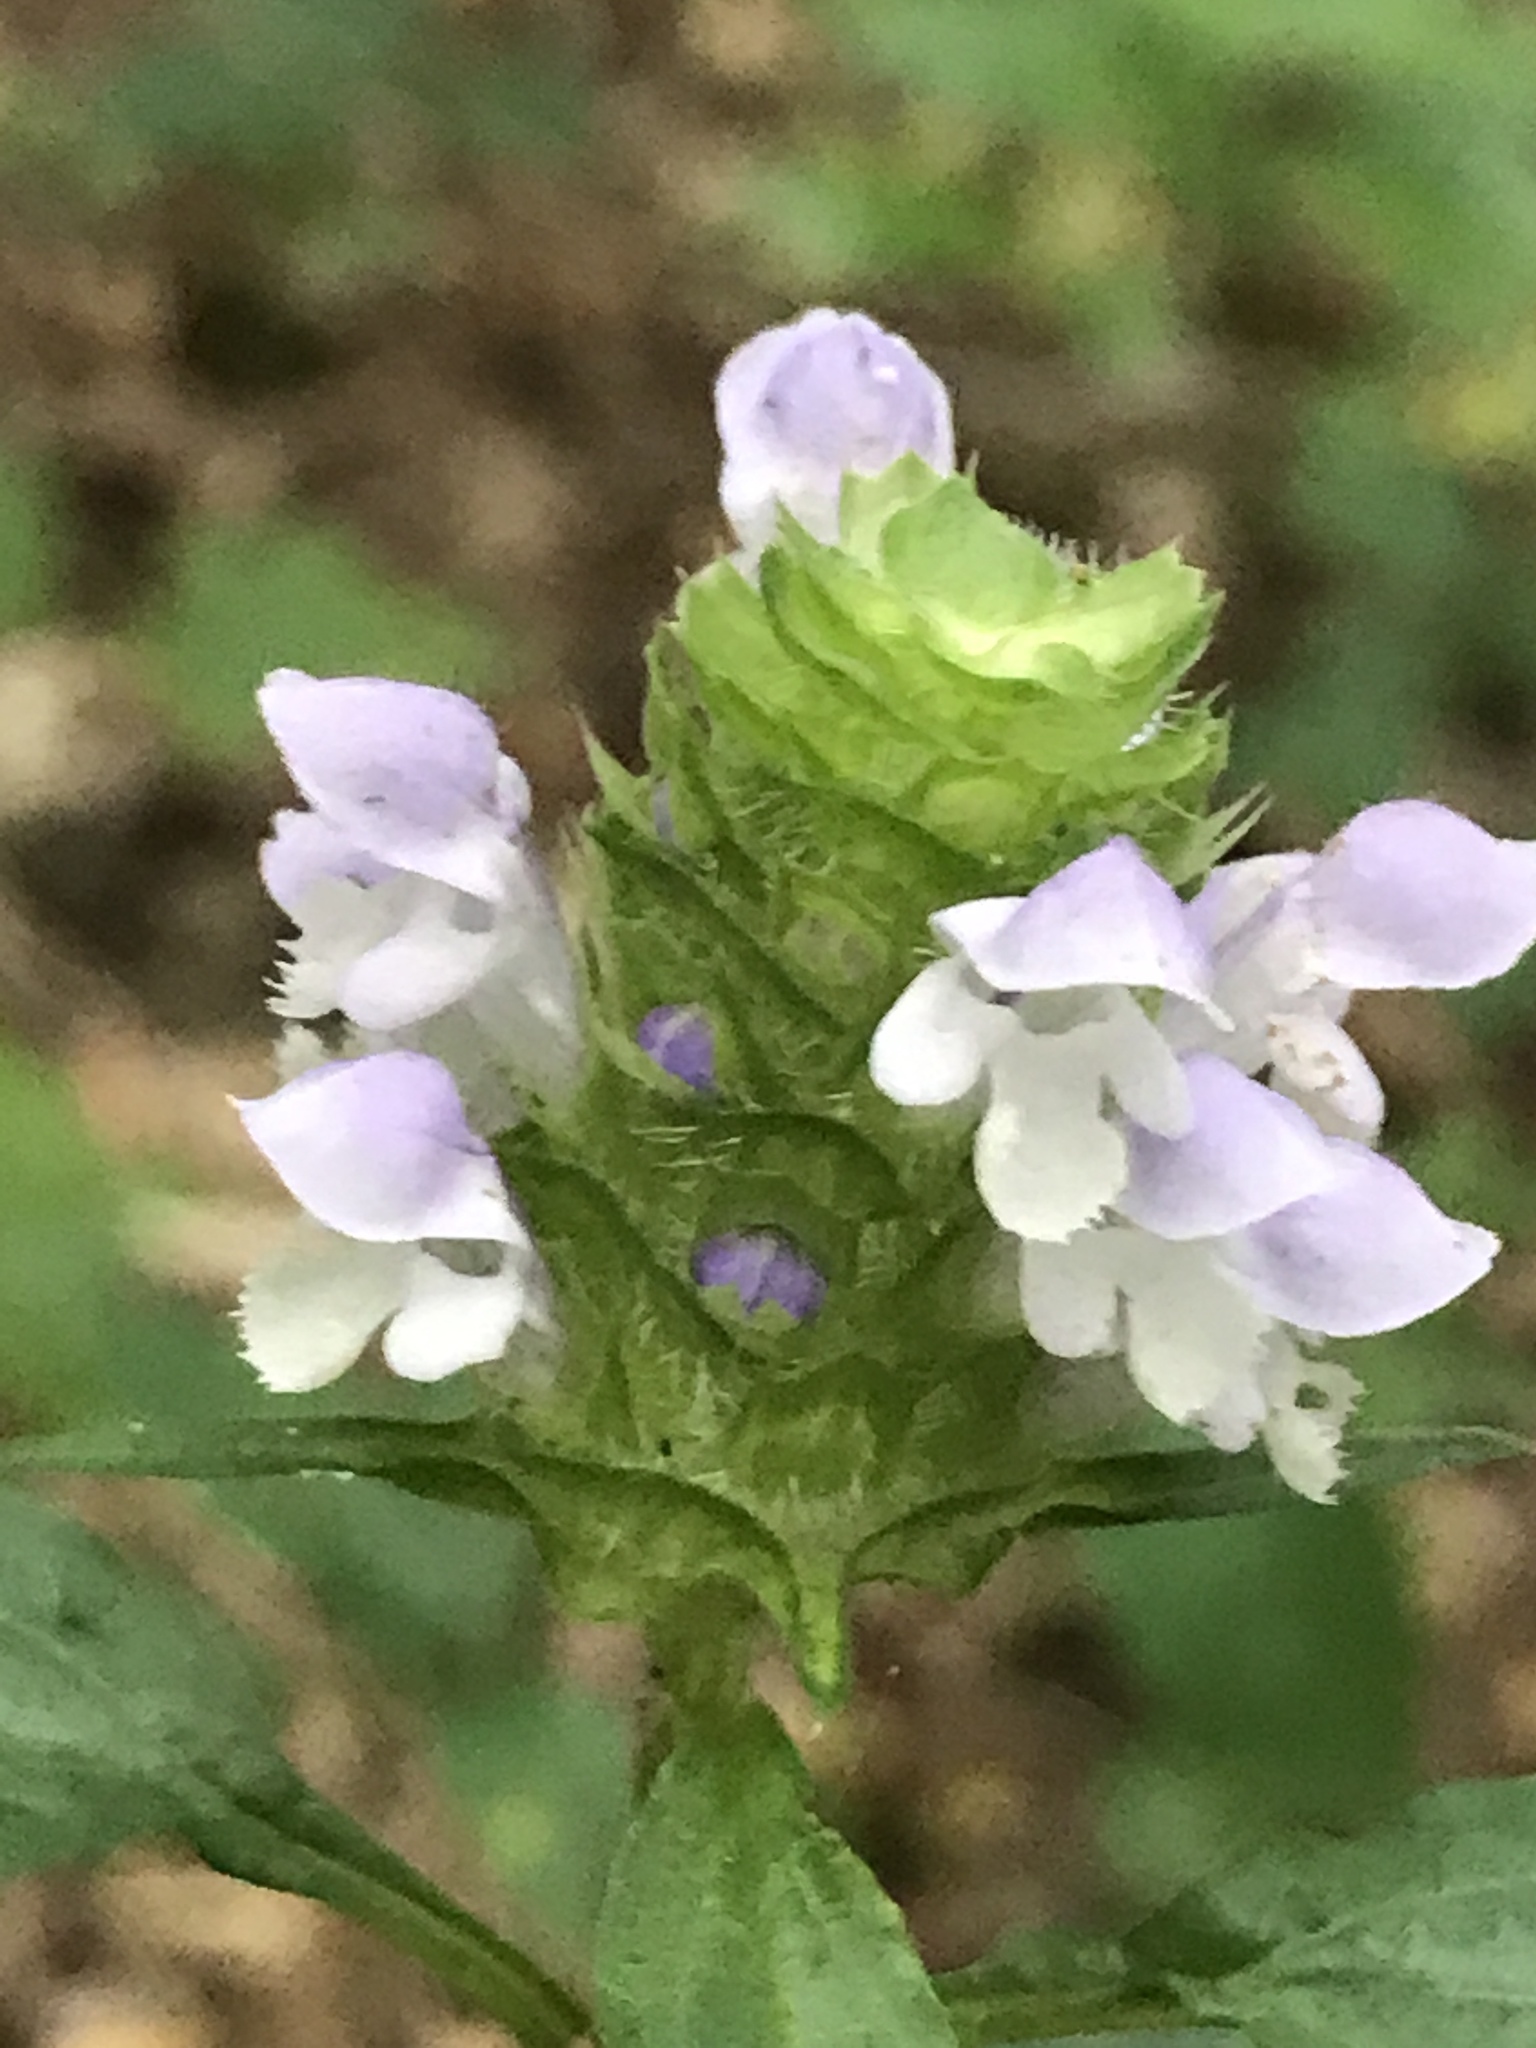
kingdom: Plantae
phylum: Tracheophyta
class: Magnoliopsida
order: Lamiales
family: Lamiaceae
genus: Prunella
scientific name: Prunella vulgaris
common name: Heal-all
